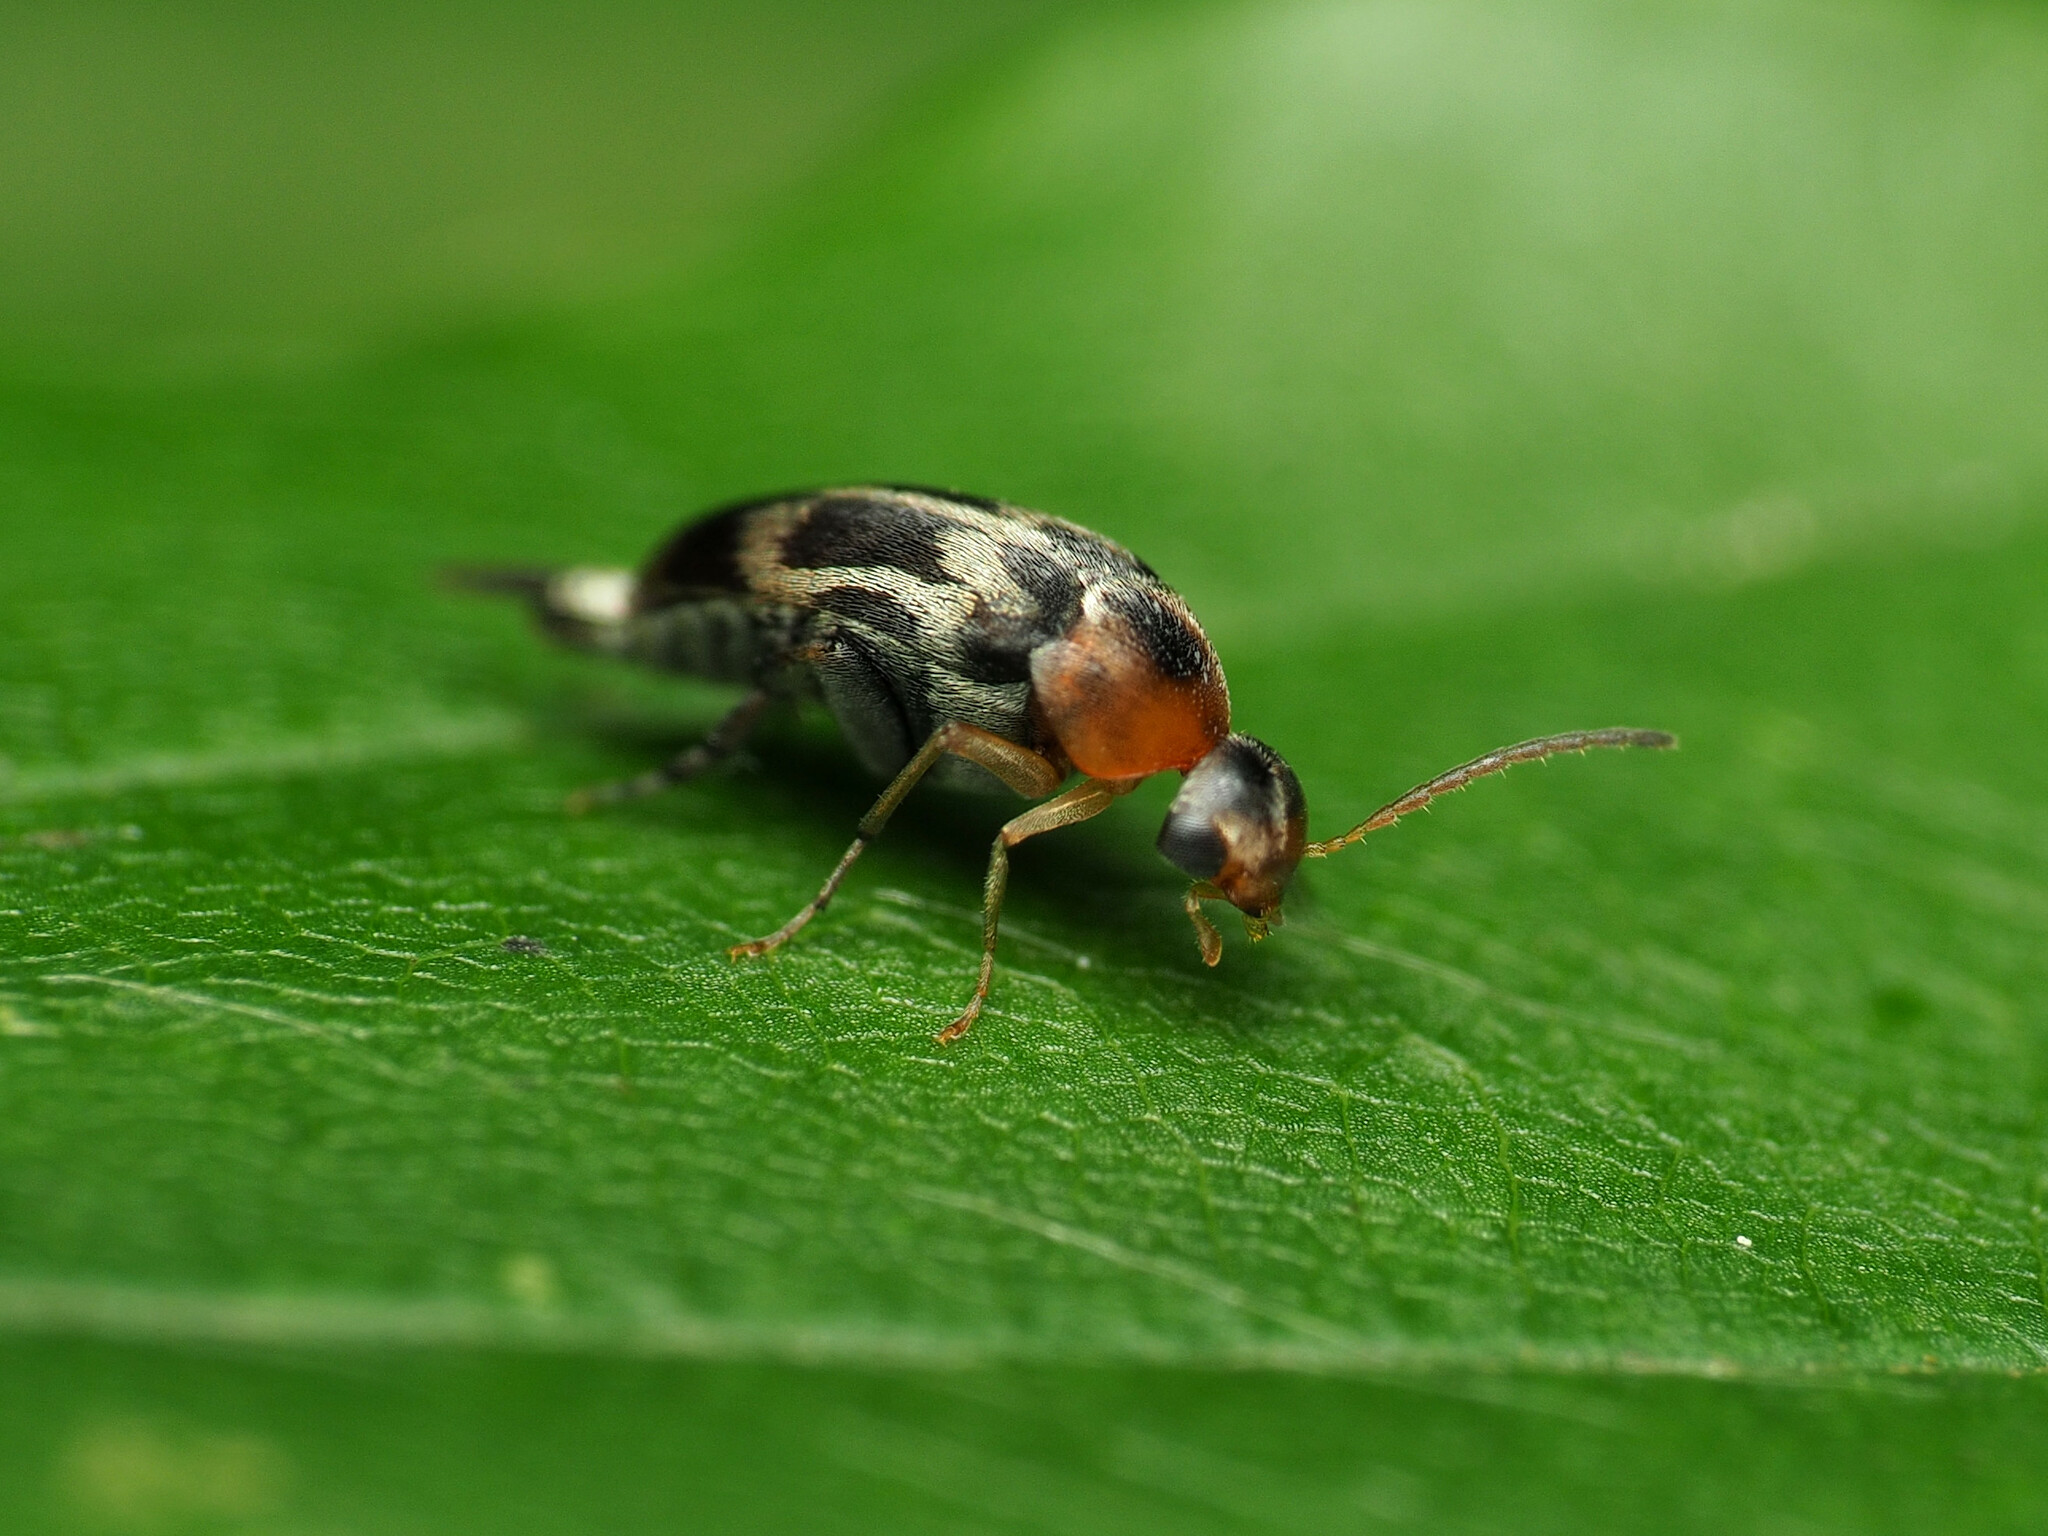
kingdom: Animalia
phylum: Arthropoda
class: Insecta
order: Coleoptera
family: Mordellidae
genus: Falsomordellistena
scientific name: Falsomordellistena hebraica
